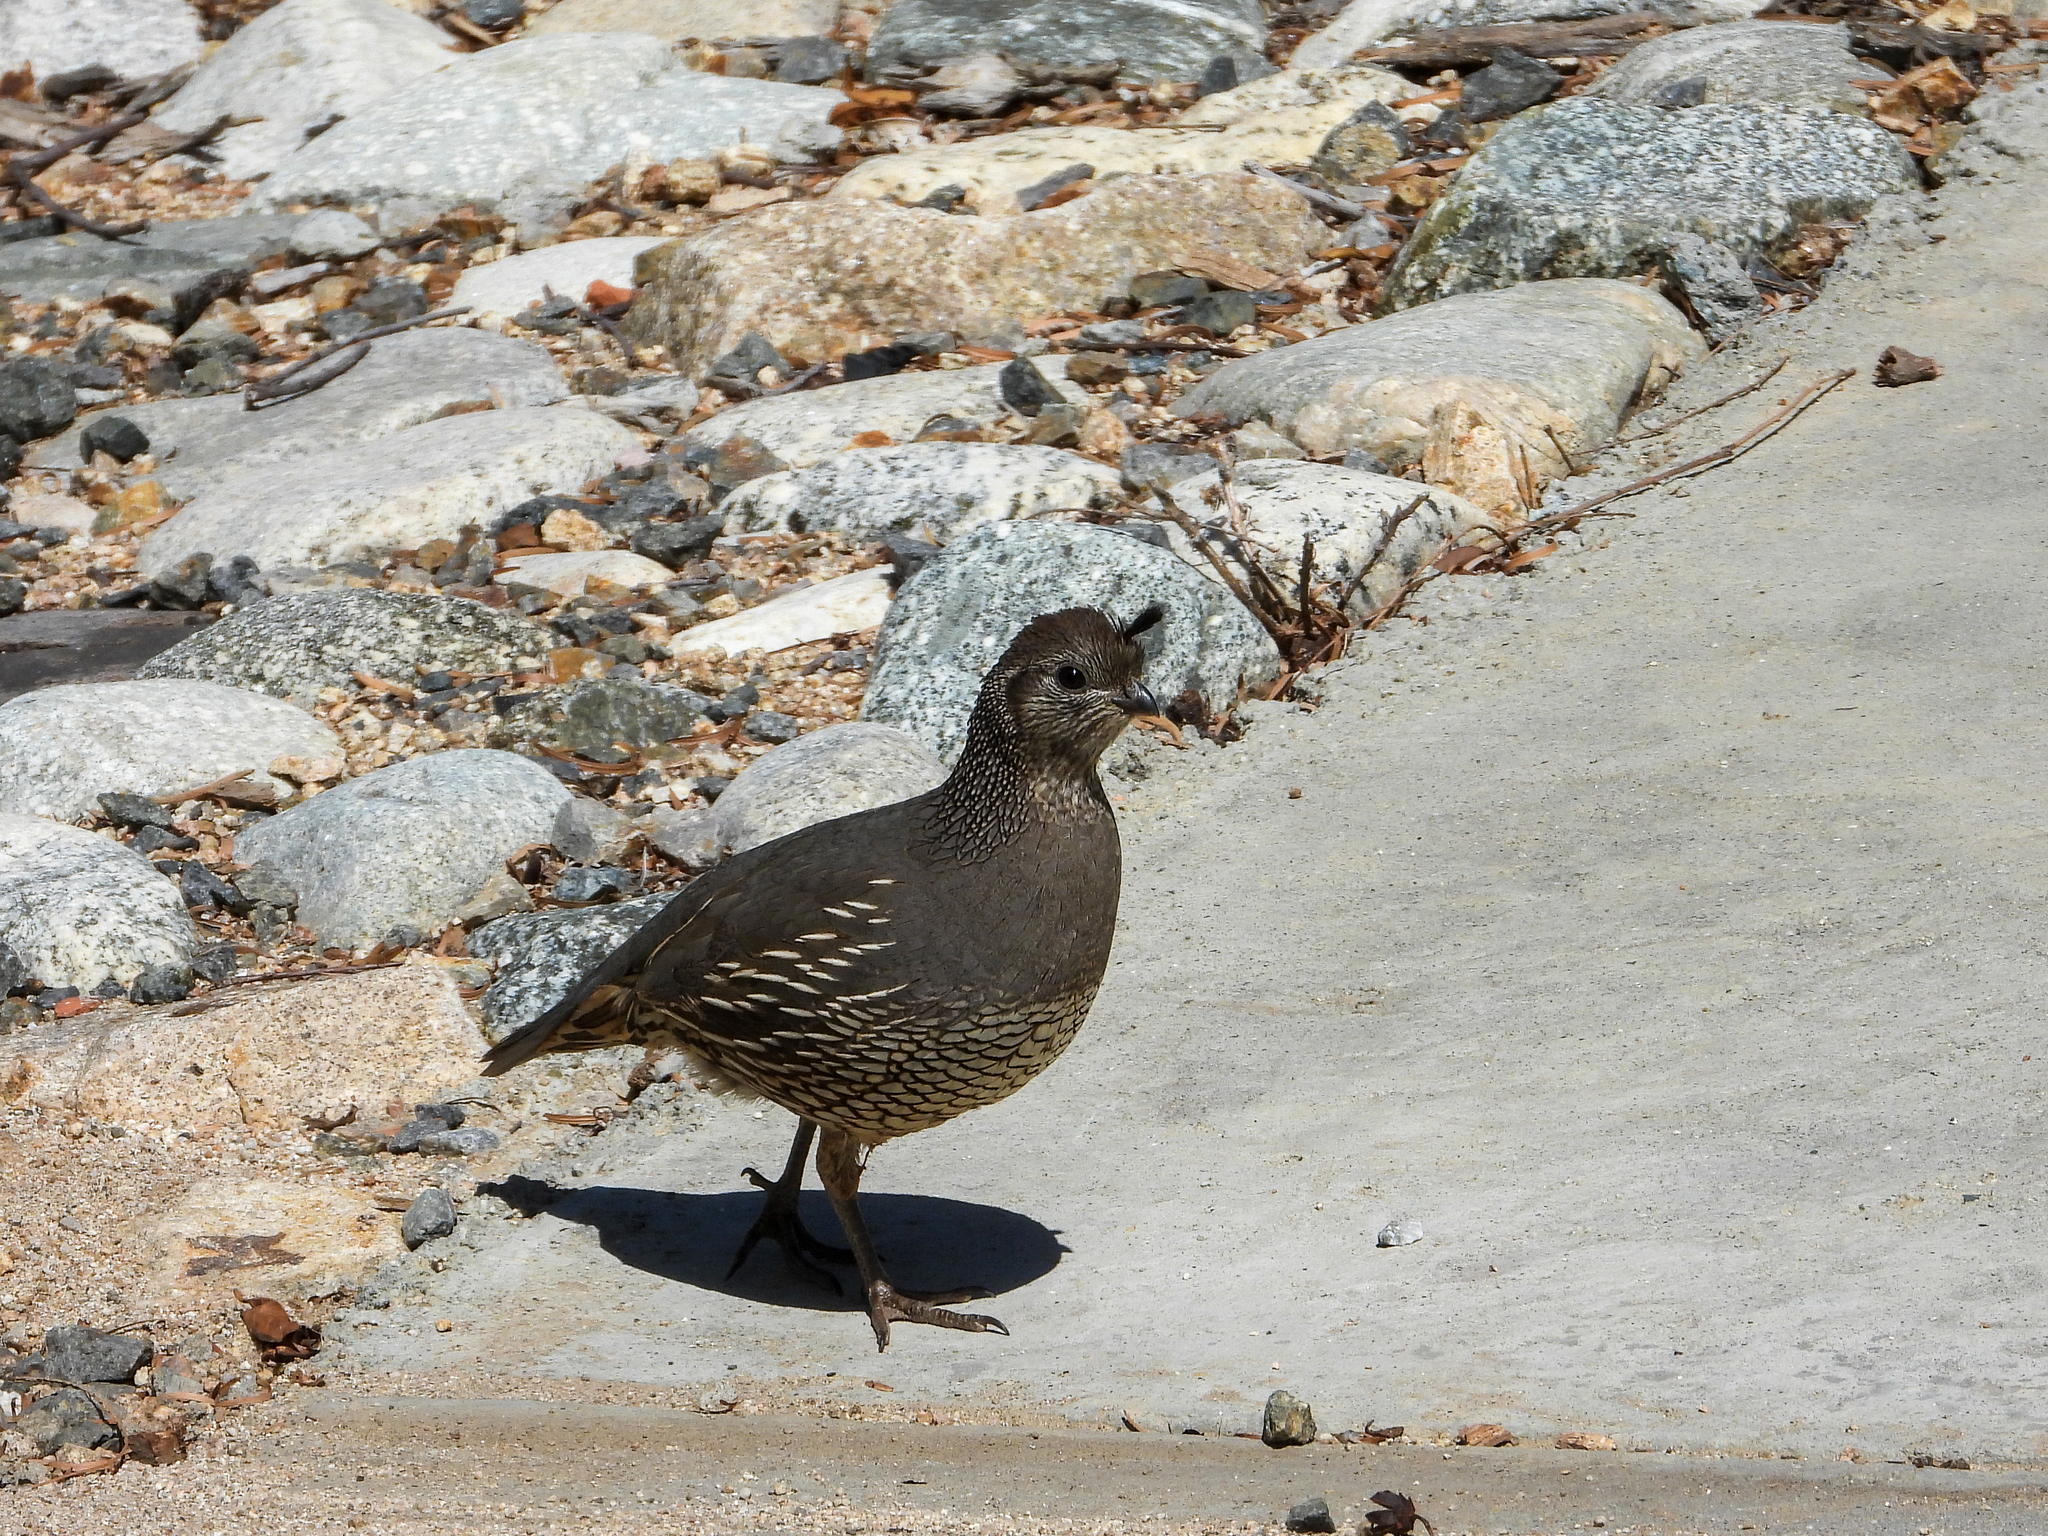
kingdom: Animalia
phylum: Chordata
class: Aves
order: Galliformes
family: Odontophoridae
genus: Callipepla
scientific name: Callipepla californica
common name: California quail
